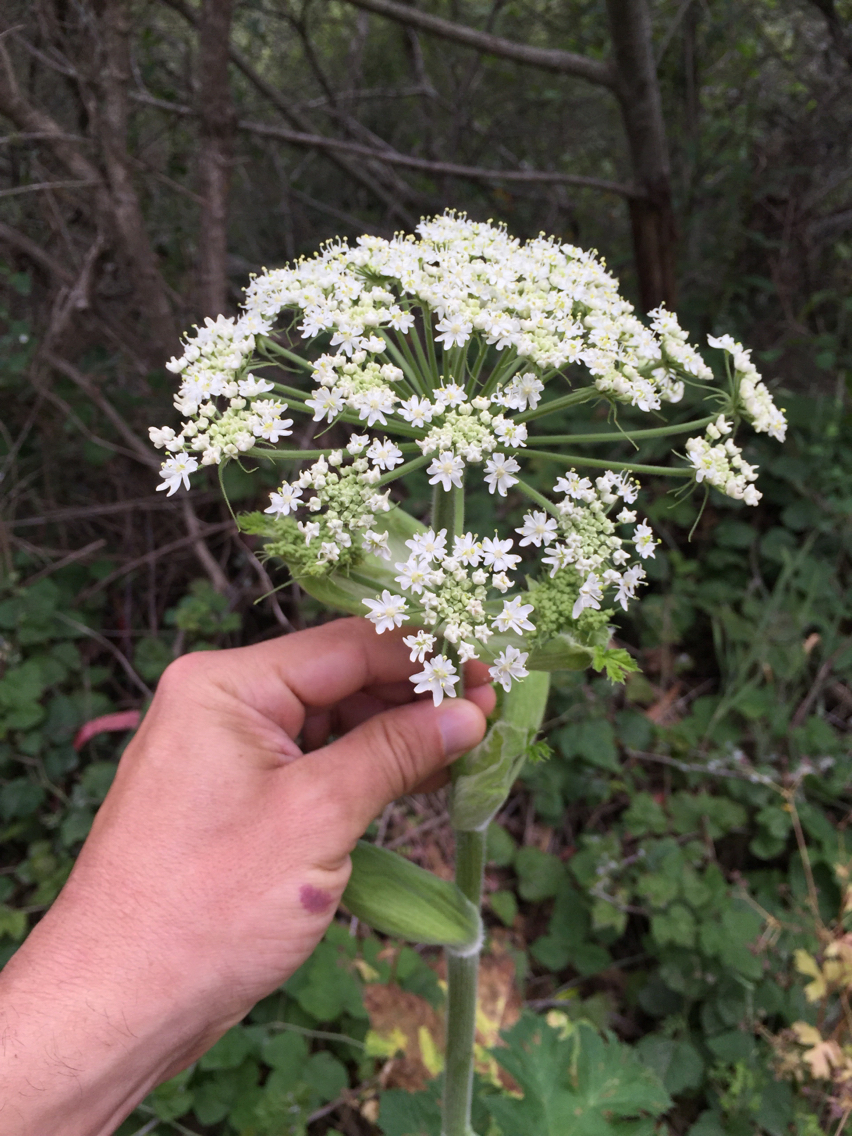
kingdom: Plantae
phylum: Tracheophyta
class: Magnoliopsida
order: Apiales
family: Apiaceae
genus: Heracleum
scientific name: Heracleum maximum
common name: American cow parsnip
